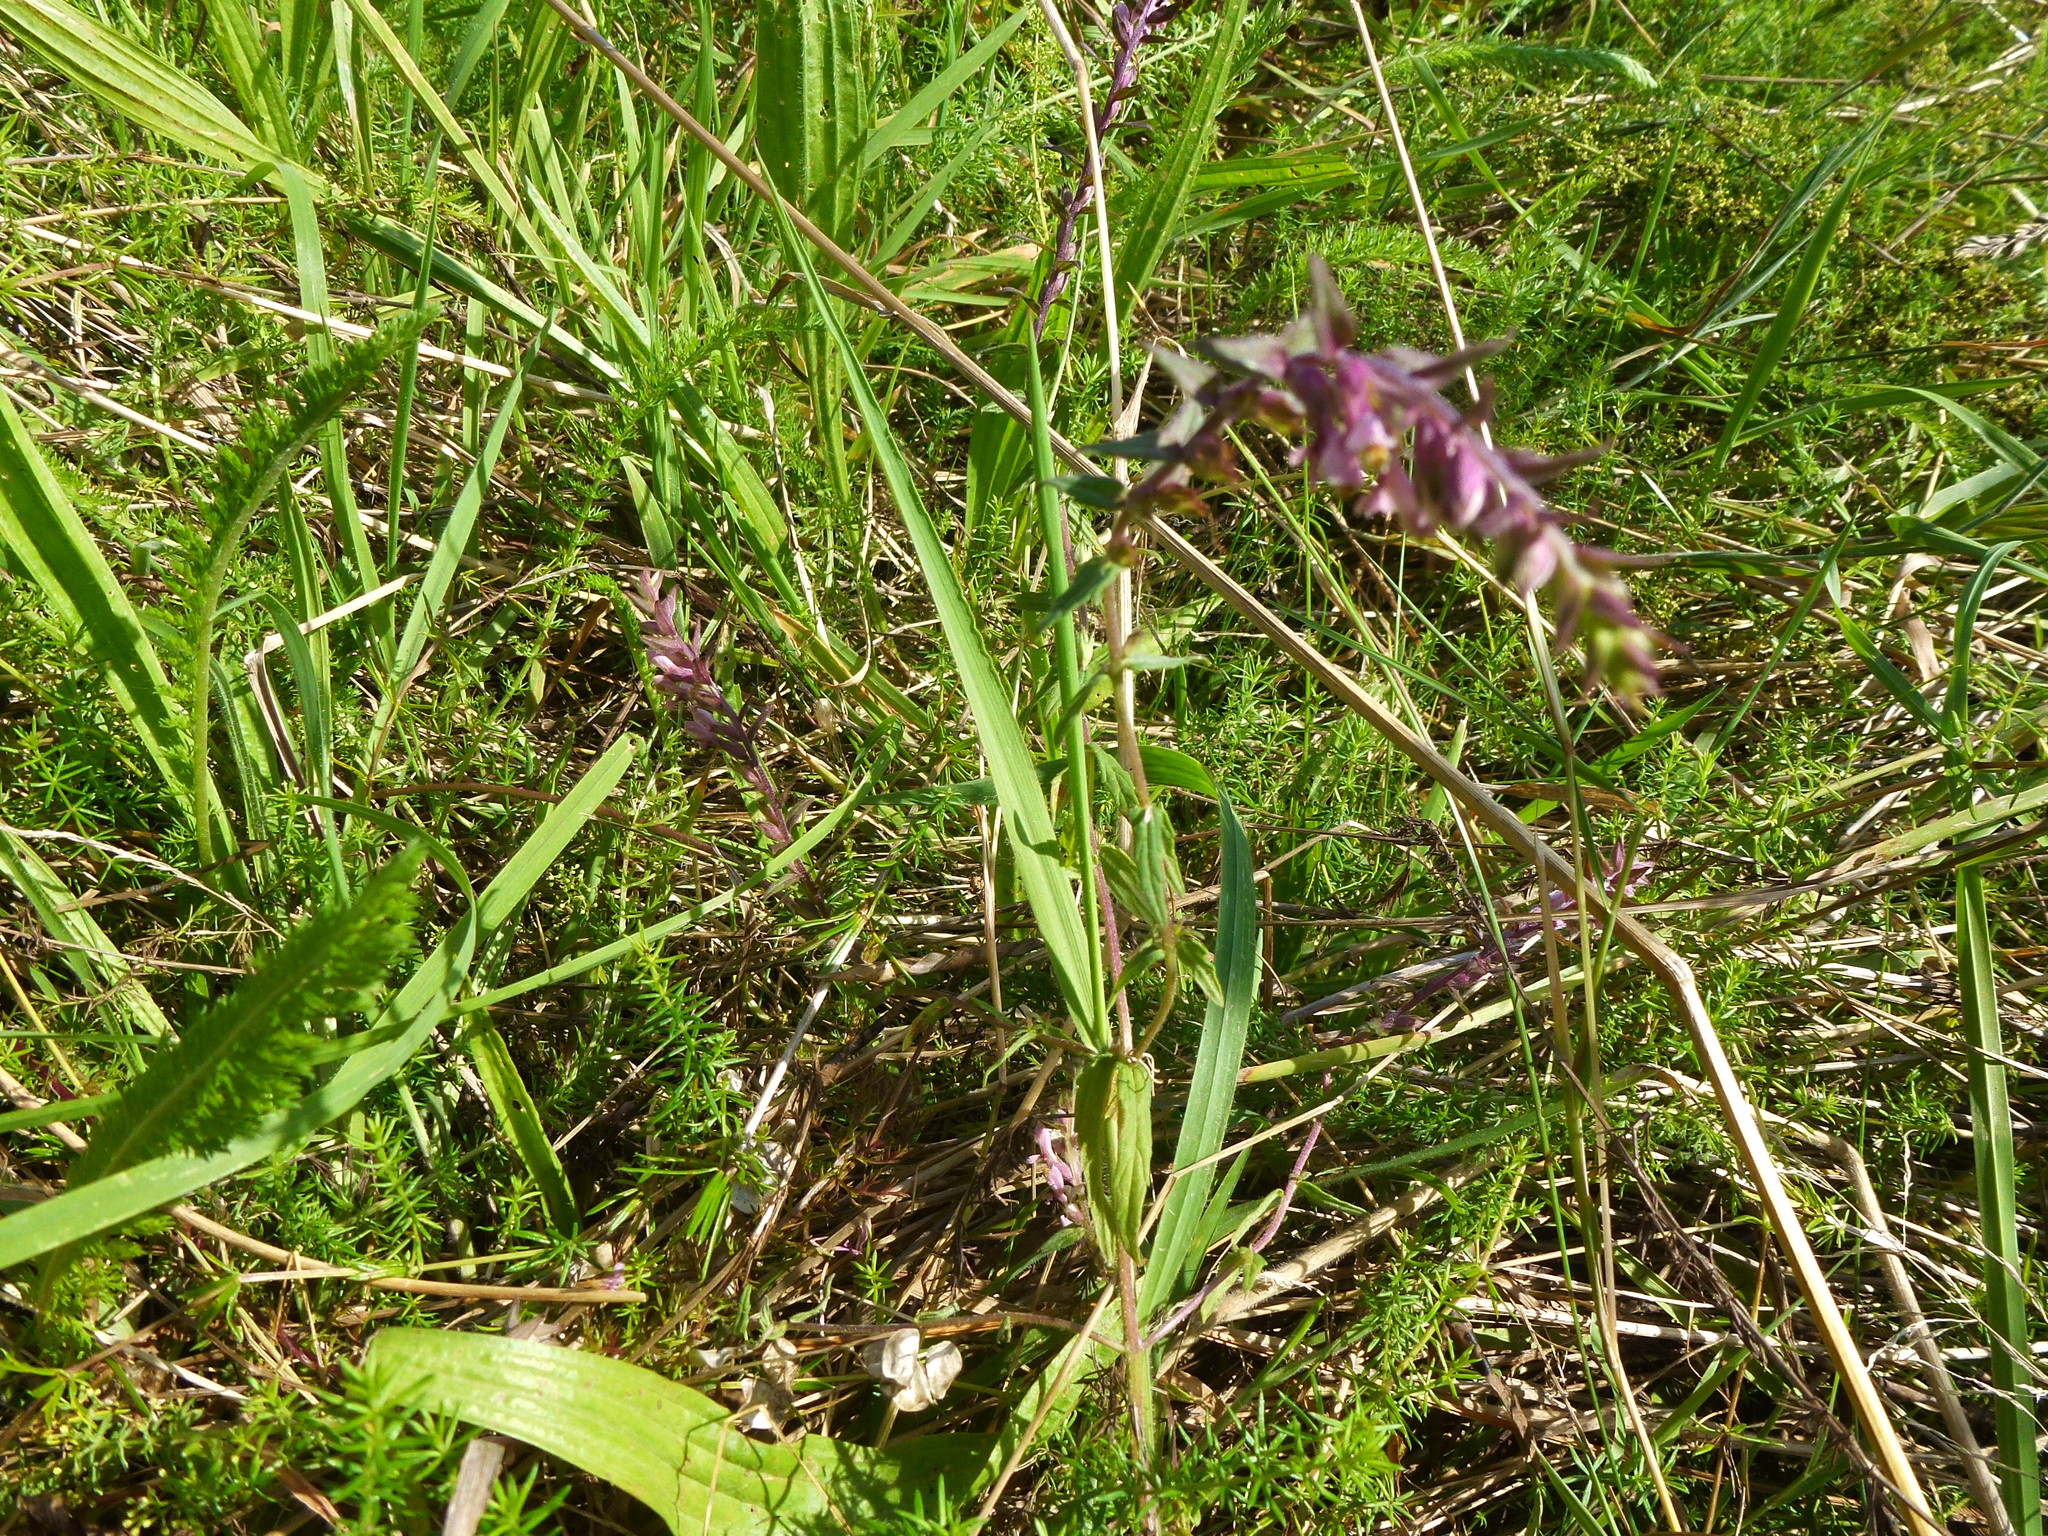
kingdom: Plantae
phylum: Tracheophyta
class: Magnoliopsida
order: Lamiales
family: Orobanchaceae
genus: Odontites
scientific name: Odontites vulgaris
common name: Broomrape
